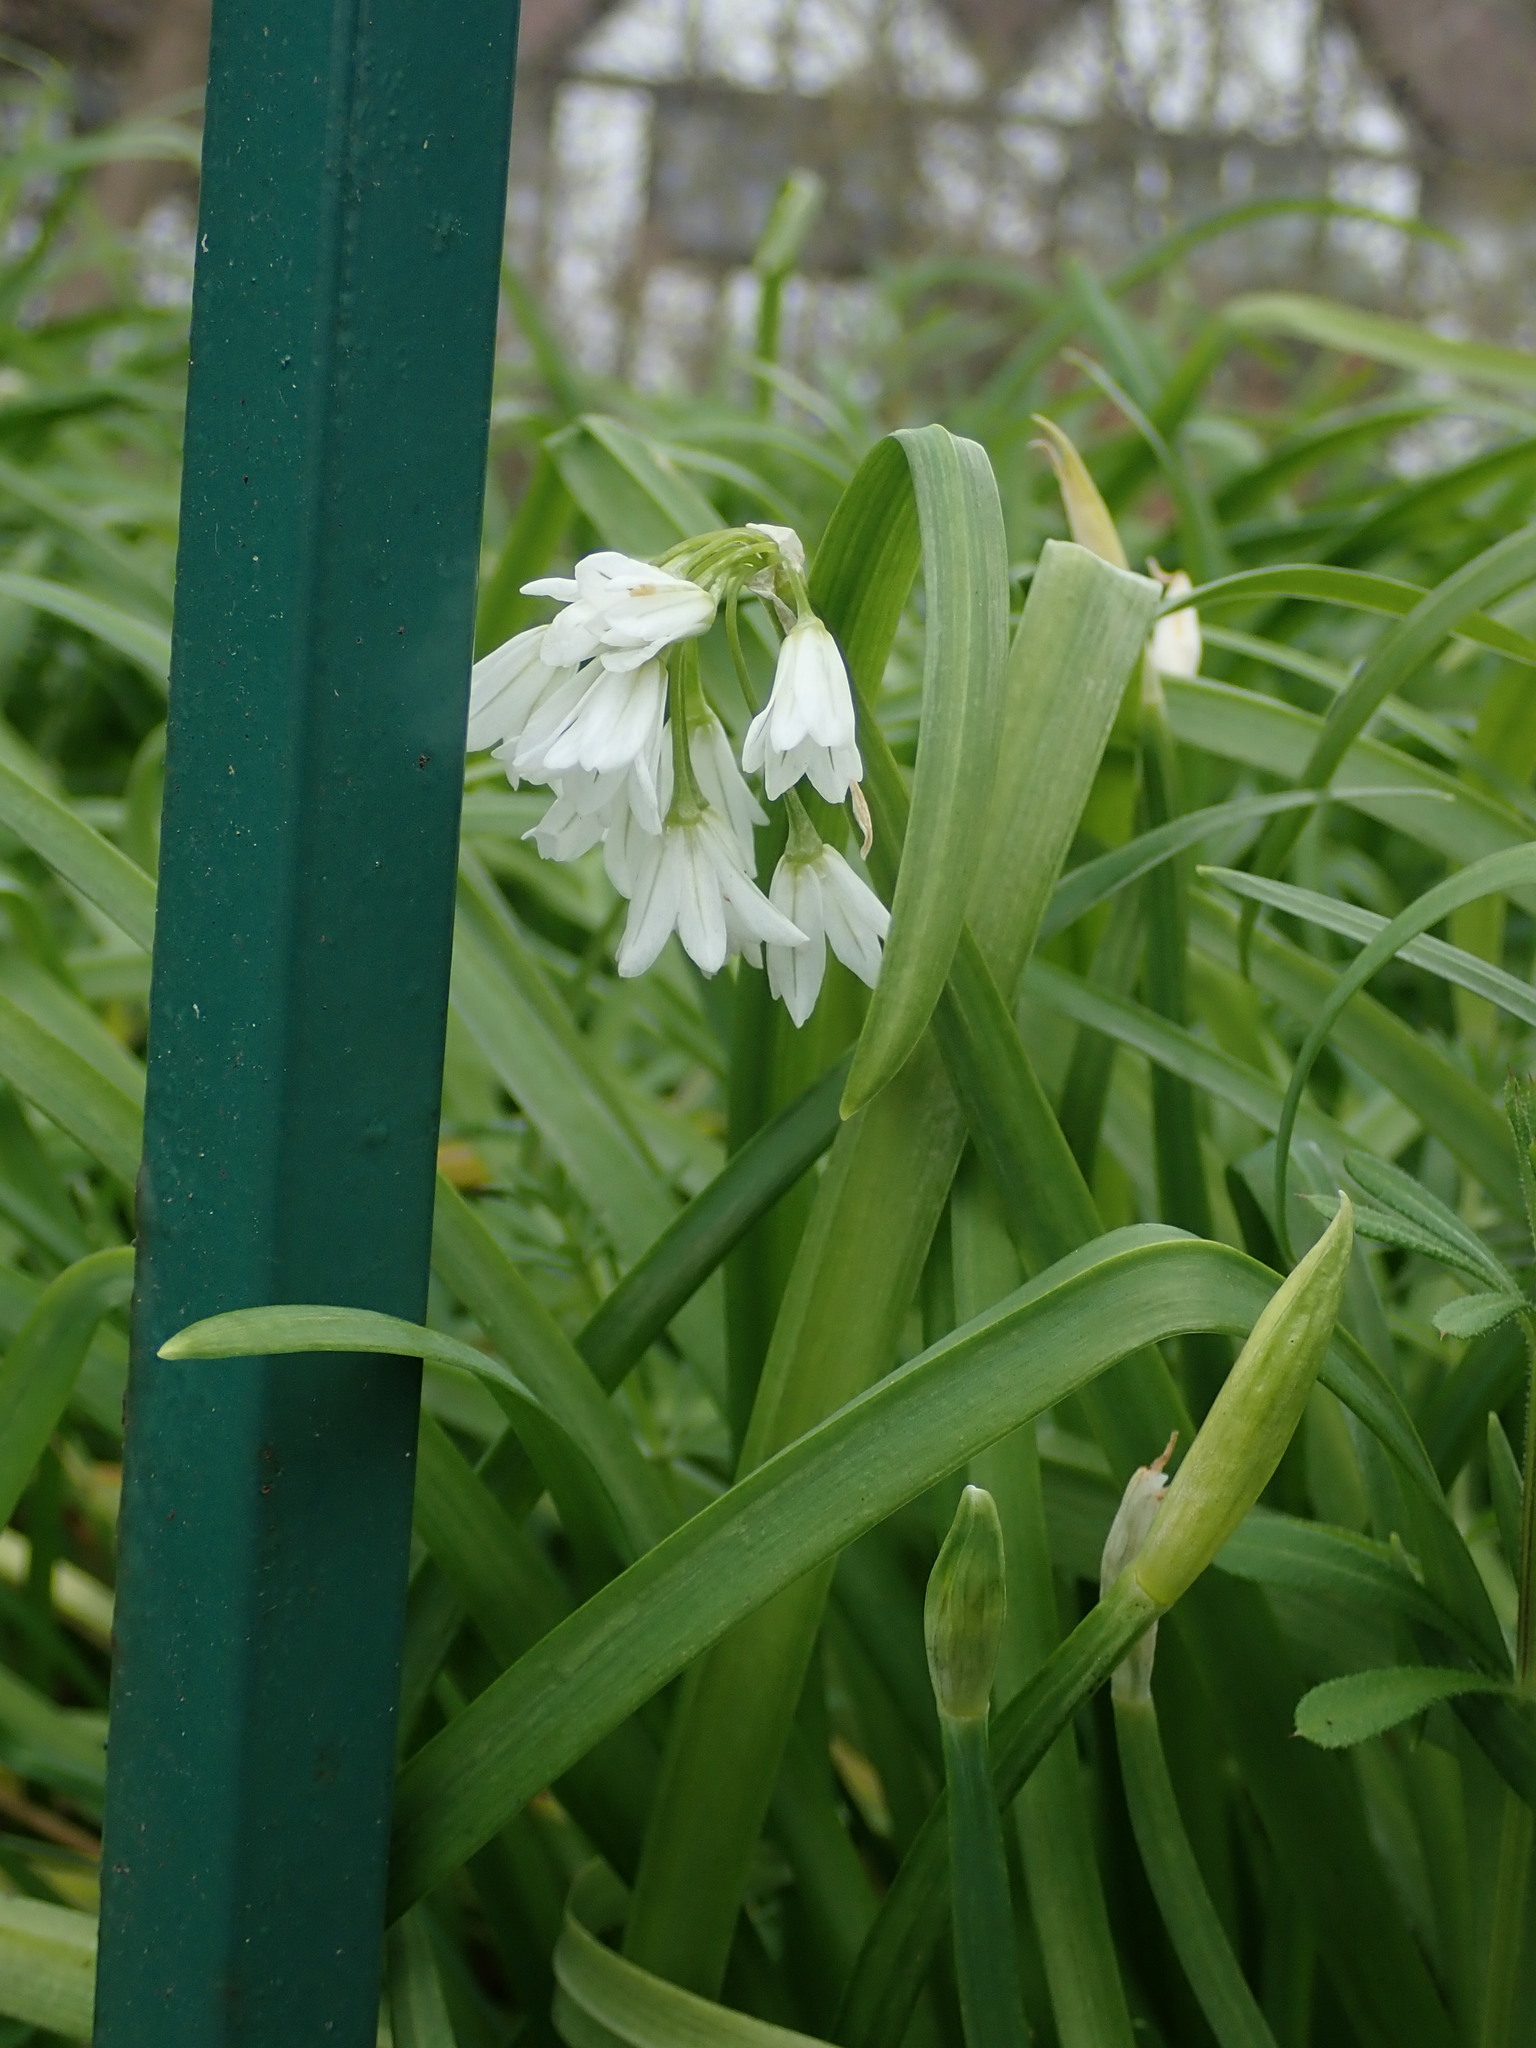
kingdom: Plantae
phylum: Tracheophyta
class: Liliopsida
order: Asparagales
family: Amaryllidaceae
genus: Allium
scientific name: Allium triquetrum
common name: Three-cornered garlic
